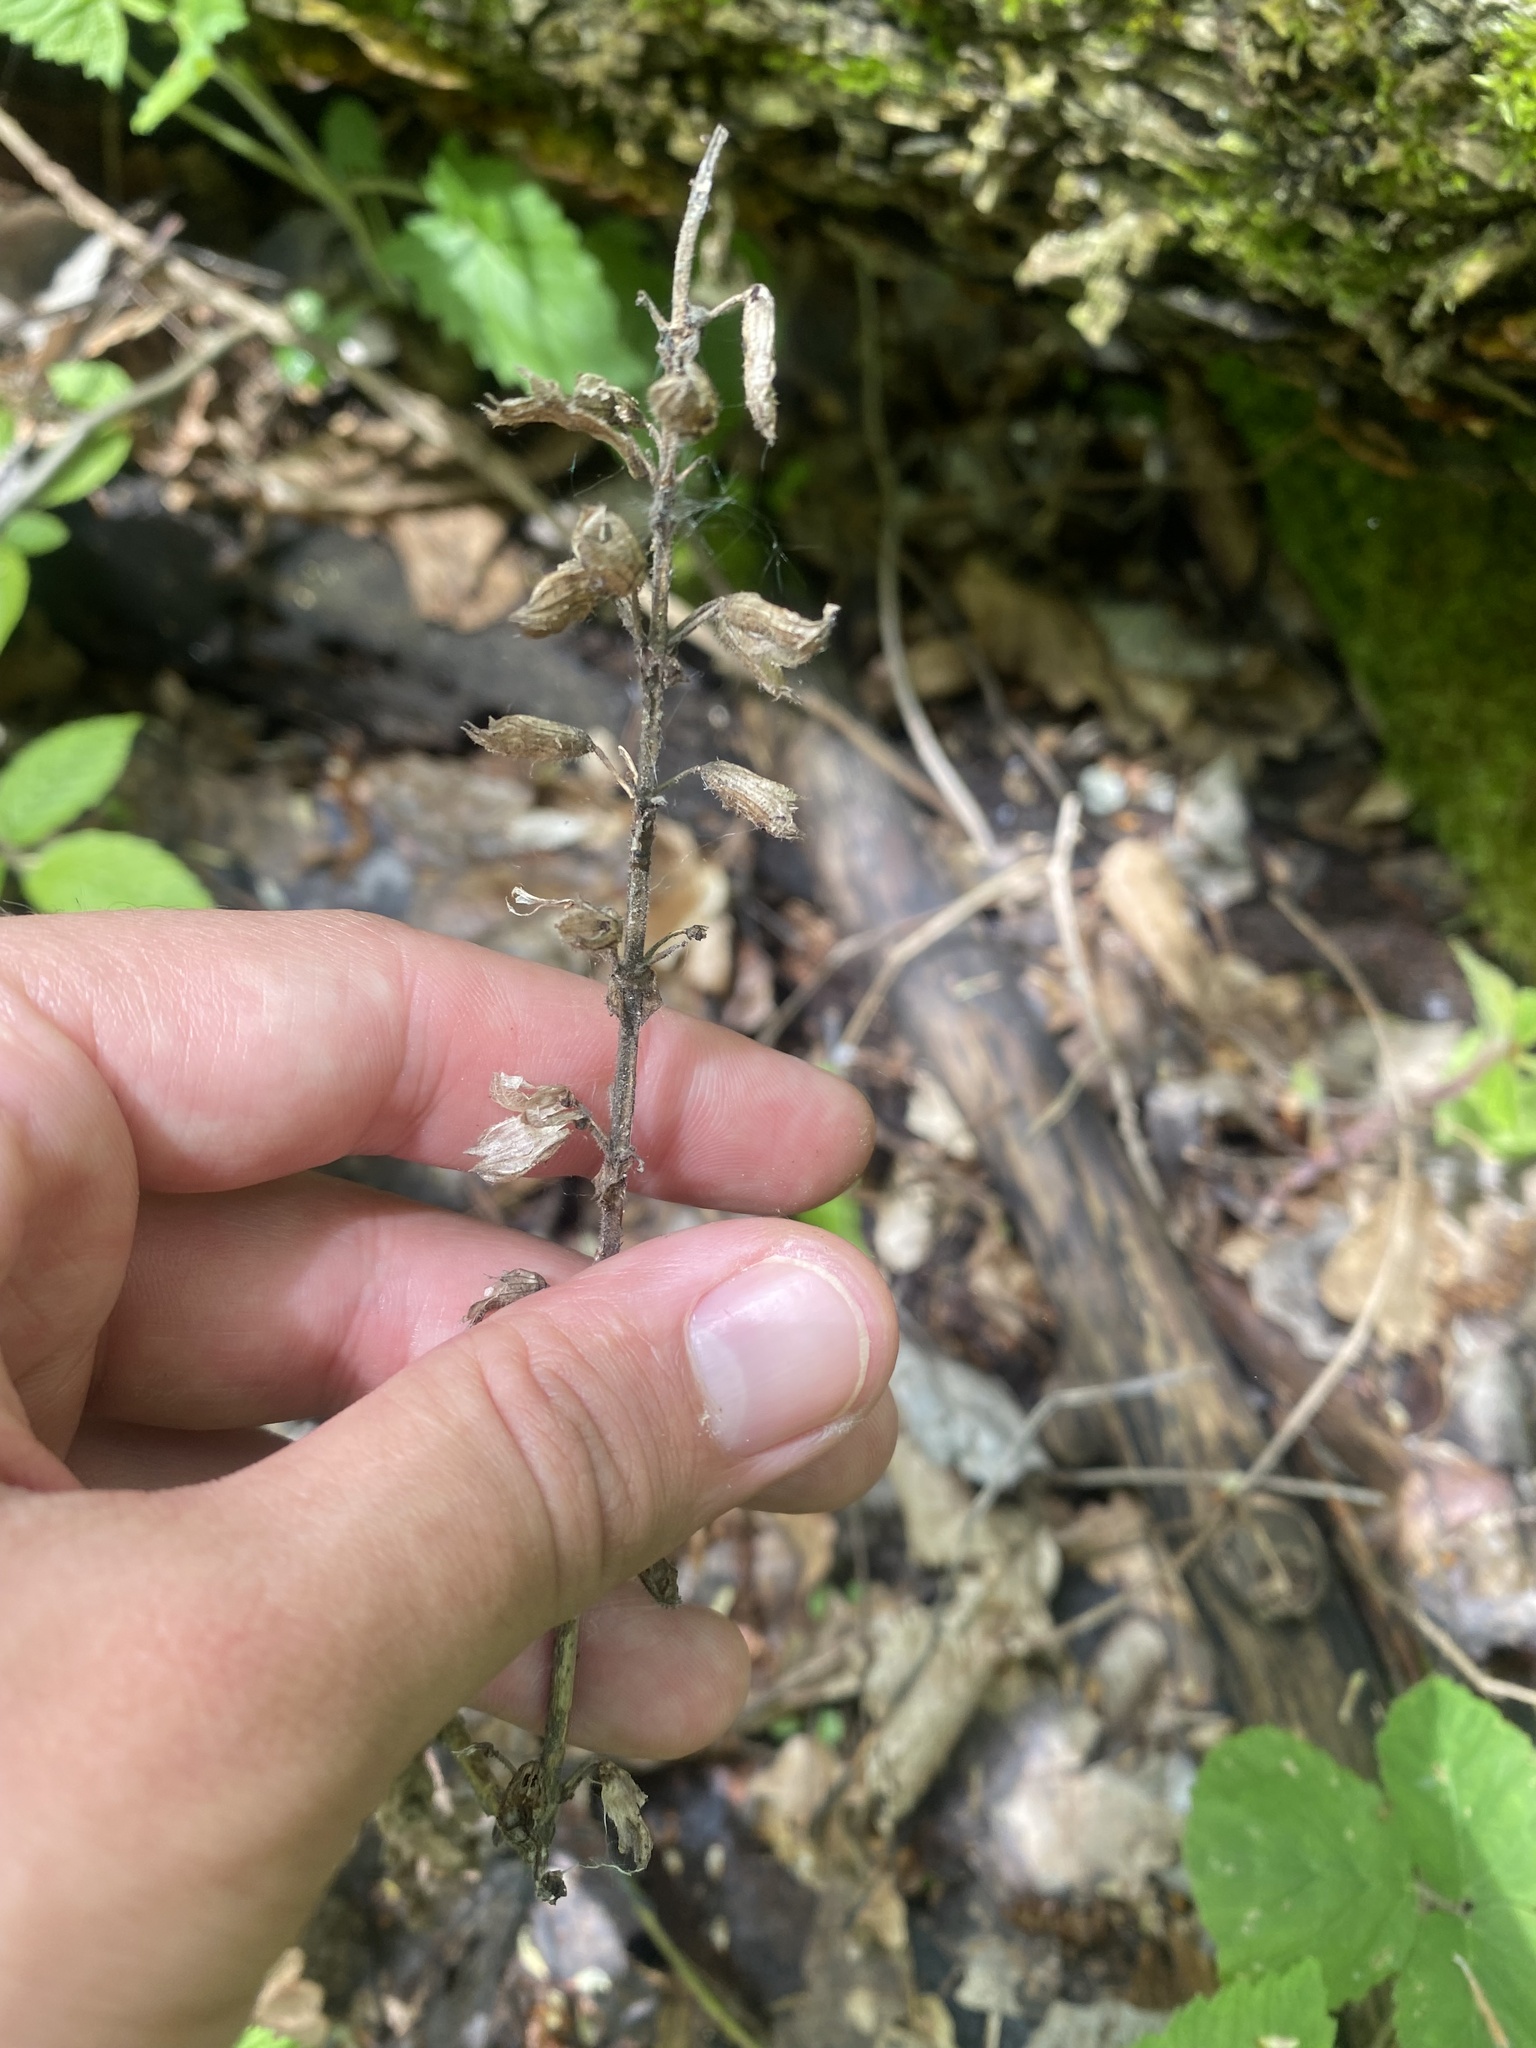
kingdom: Plantae
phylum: Tracheophyta
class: Magnoliopsida
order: Lamiales
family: Lamiaceae
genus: Salvia
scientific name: Salvia glutinosa
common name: Sticky clary
